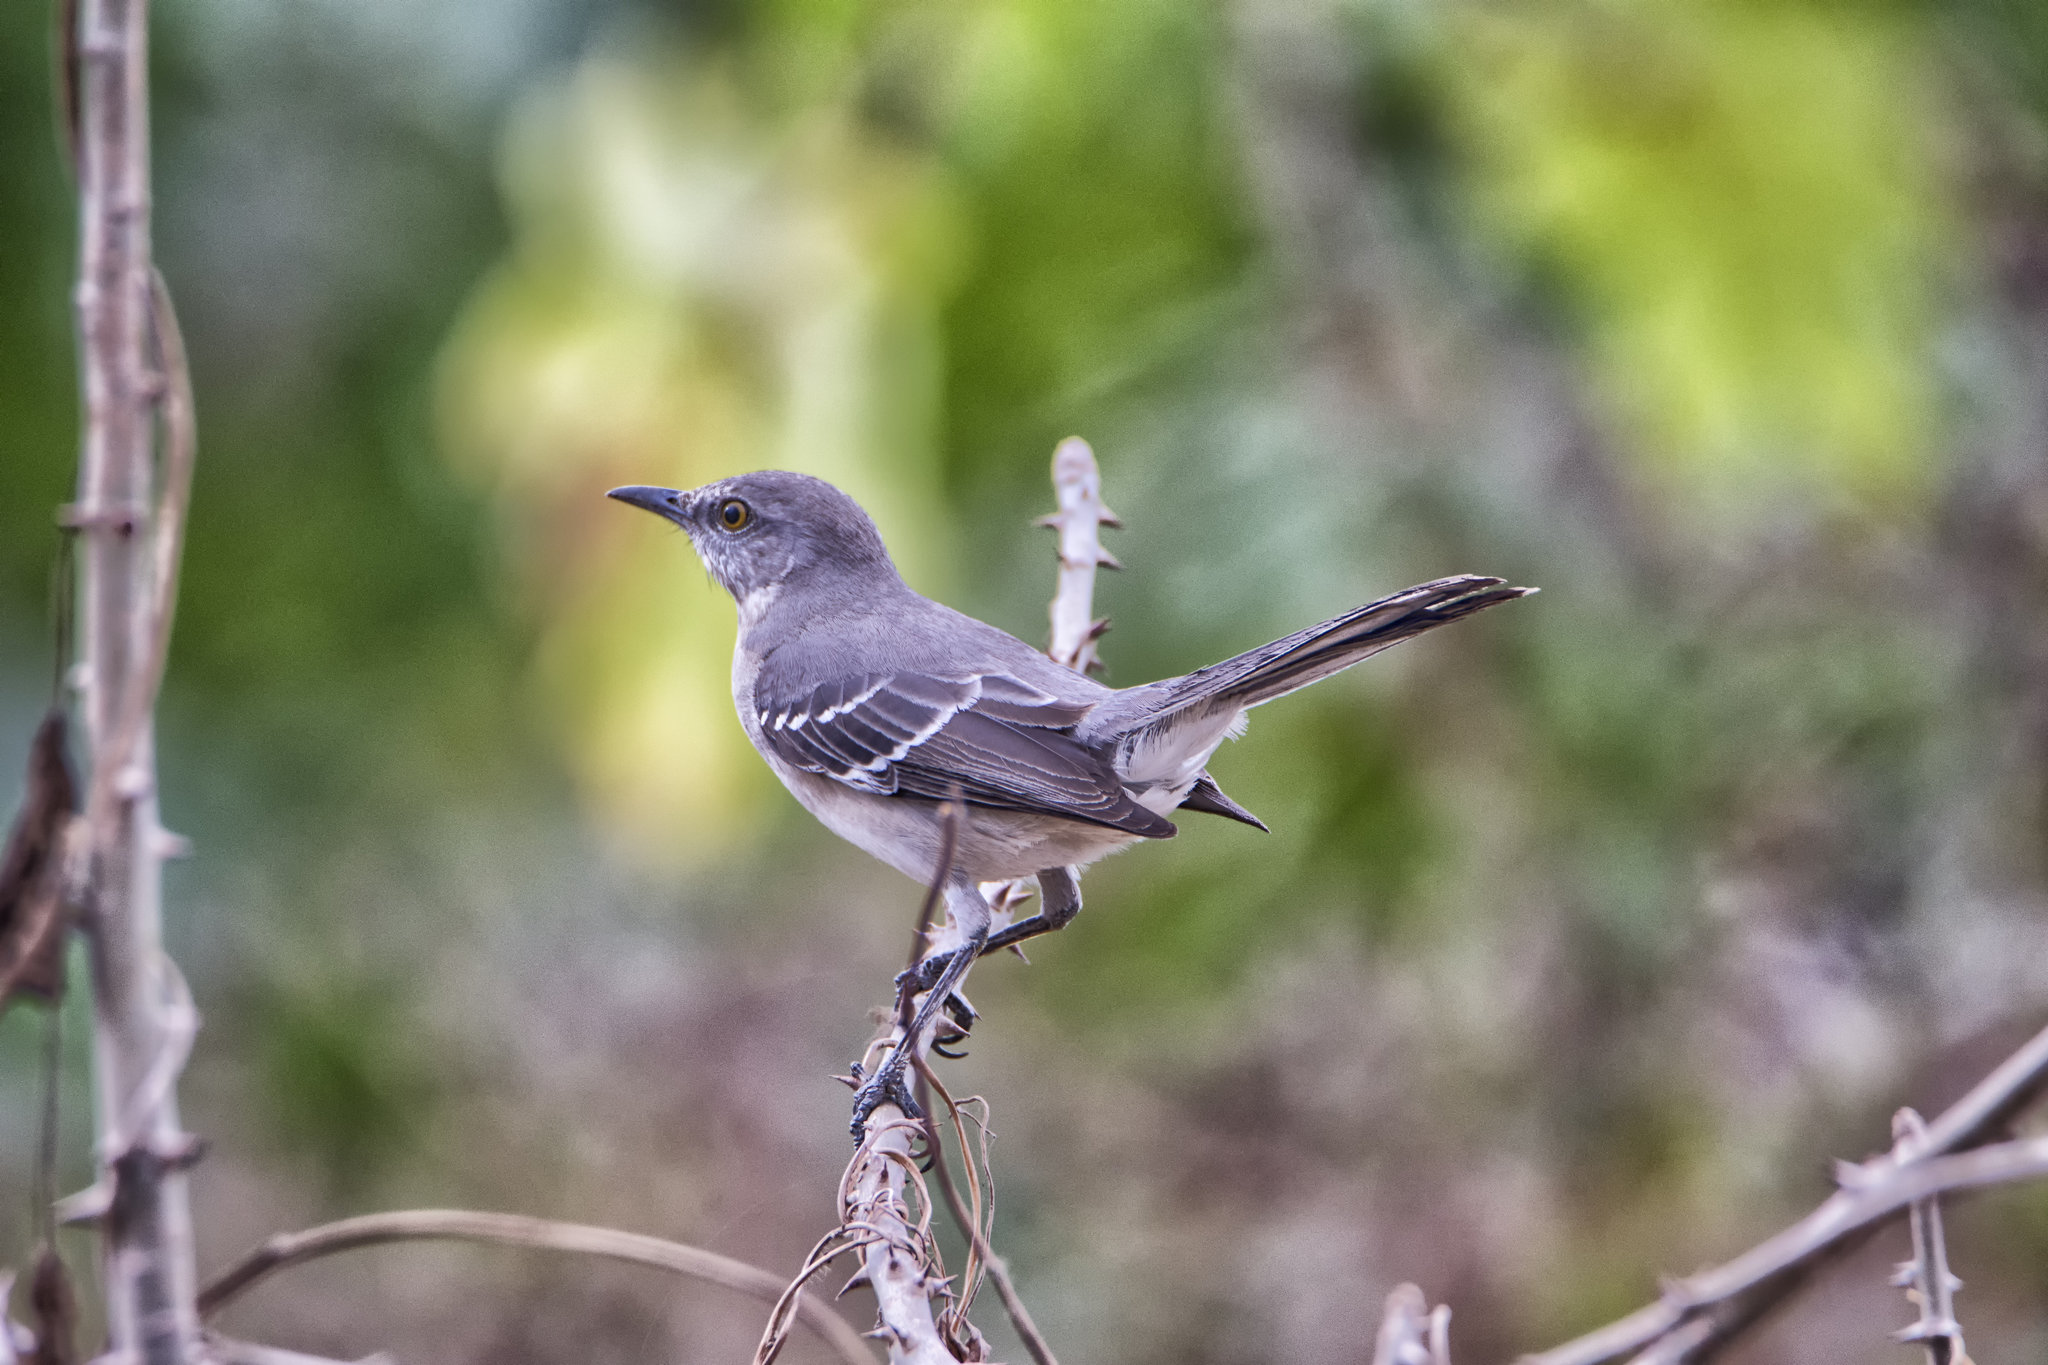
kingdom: Animalia
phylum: Chordata
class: Aves
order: Passeriformes
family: Mimidae
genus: Mimus
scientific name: Mimus polyglottos
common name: Northern mockingbird
